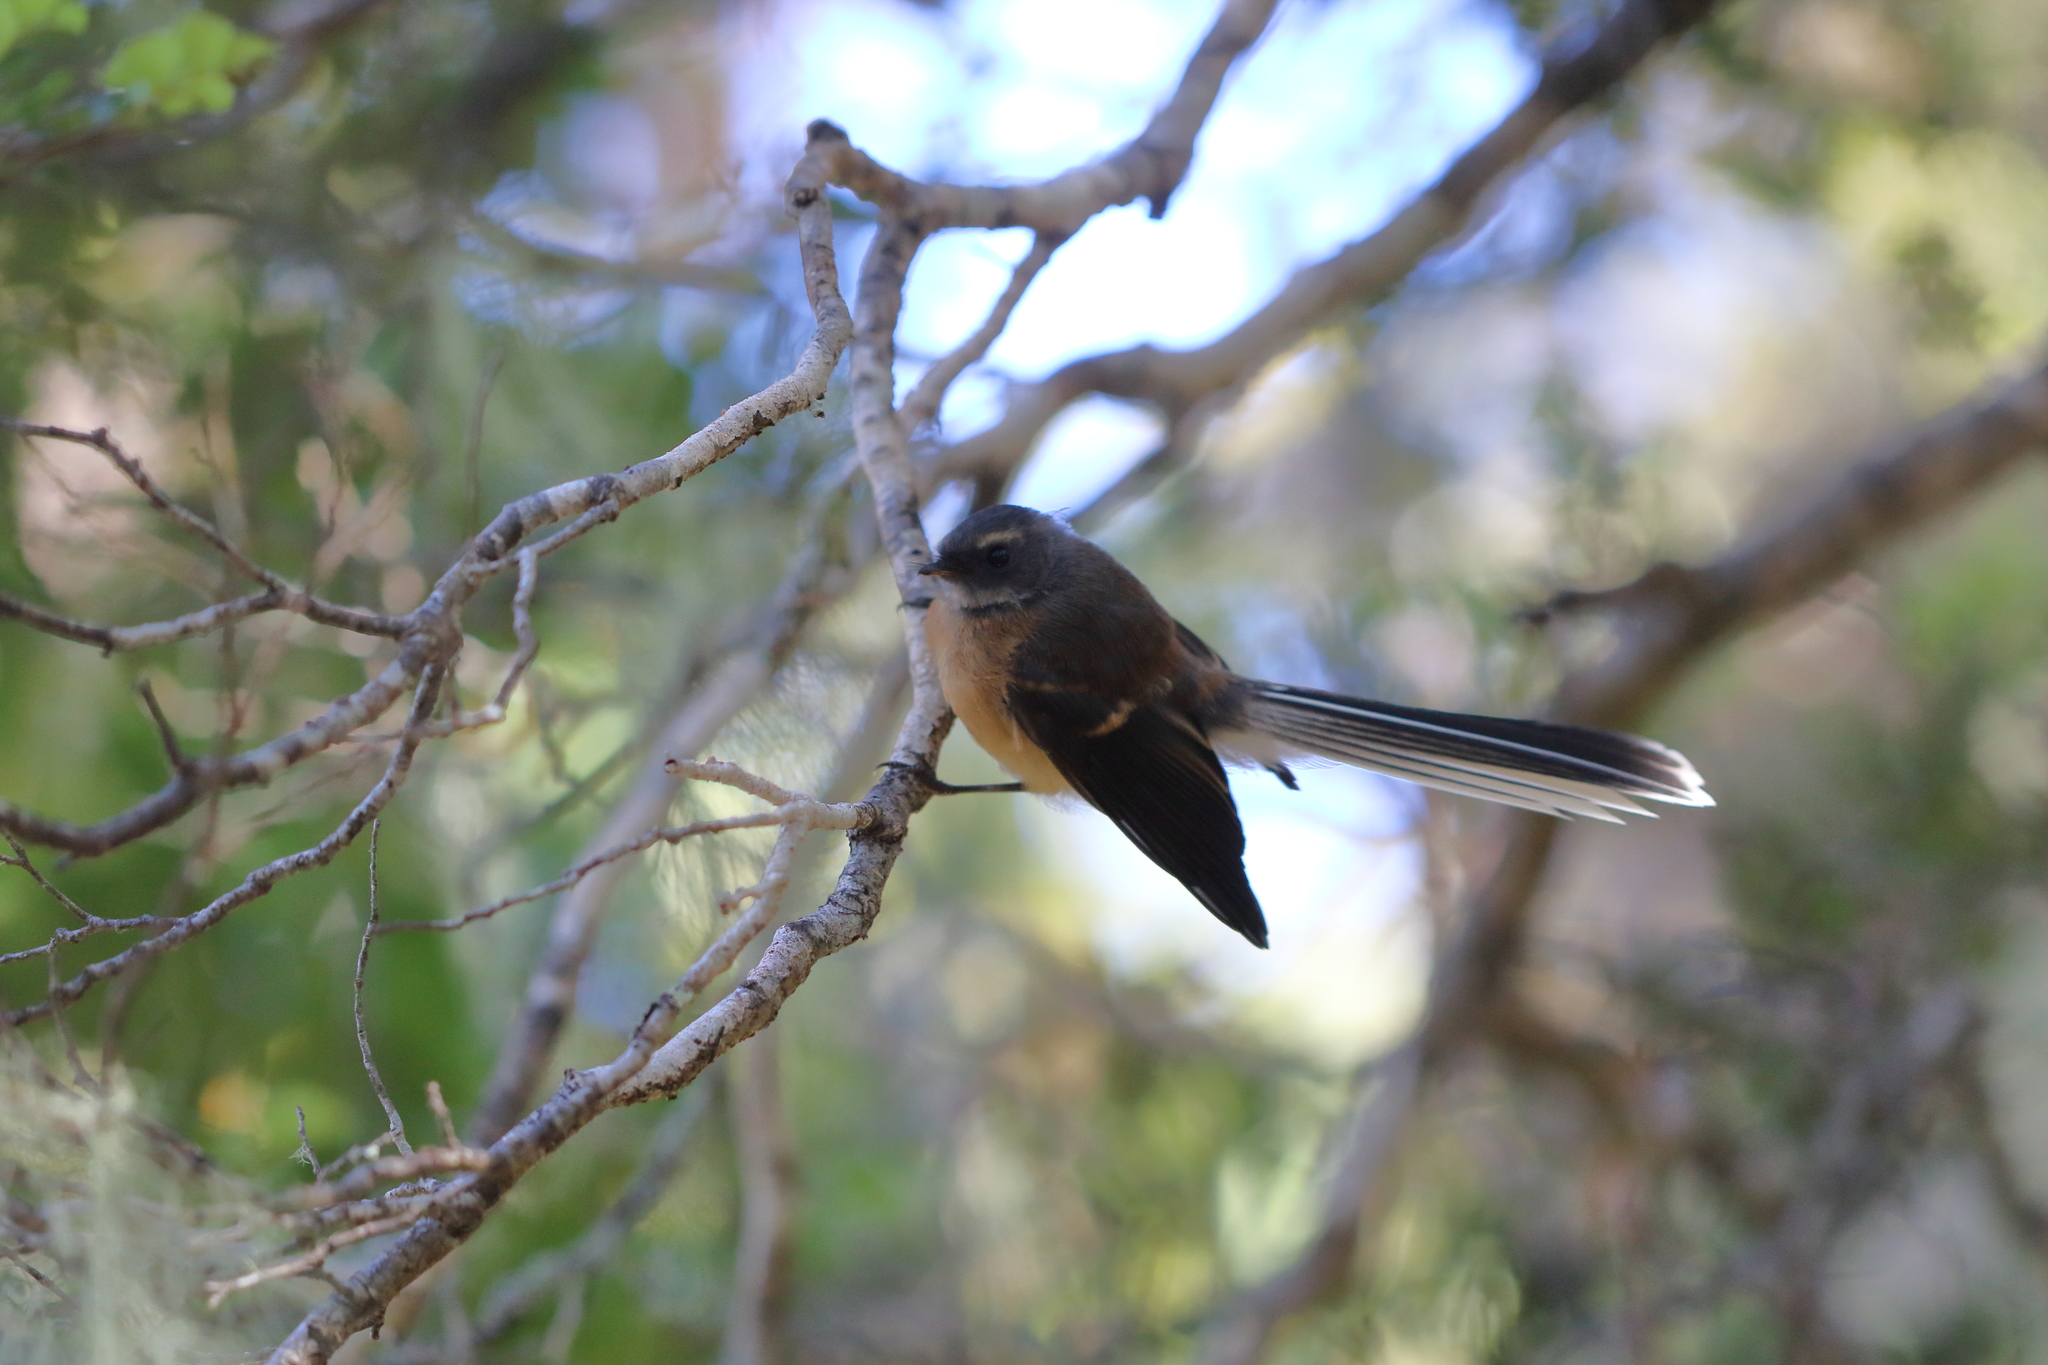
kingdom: Animalia
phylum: Chordata
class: Aves
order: Passeriformes
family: Rhipiduridae
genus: Rhipidura
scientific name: Rhipidura fuliginosa
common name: New zealand fantail
